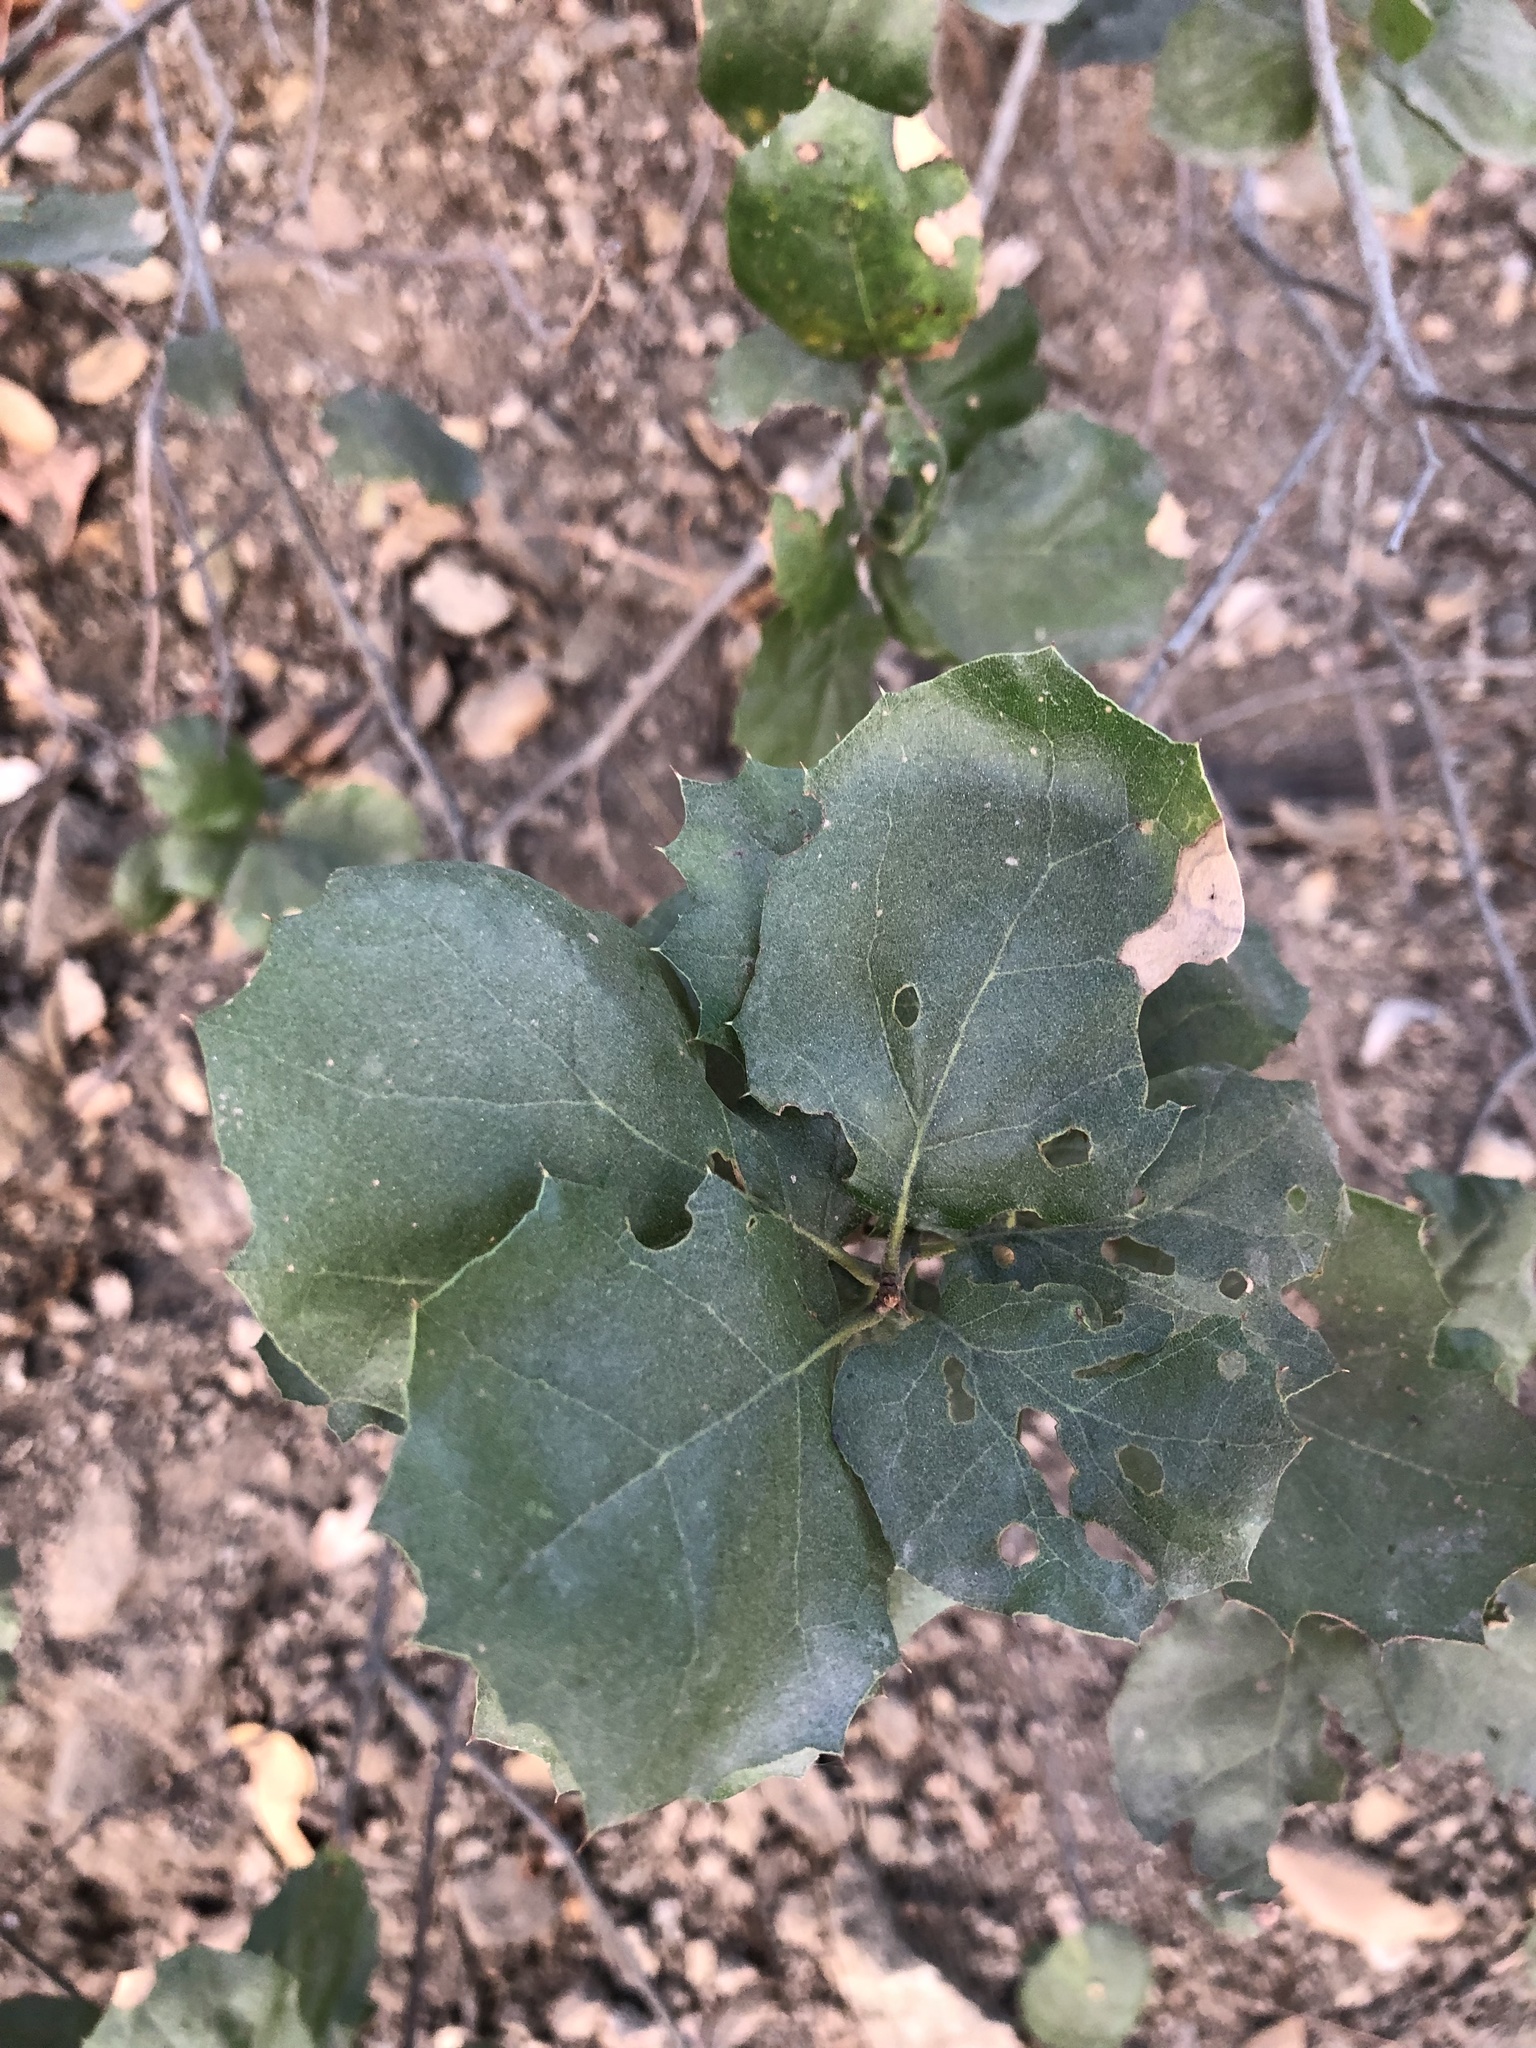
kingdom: Plantae
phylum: Tracheophyta
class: Magnoliopsida
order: Fagales
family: Fagaceae
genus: Quercus
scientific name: Quercus agrifolia
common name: California live oak
